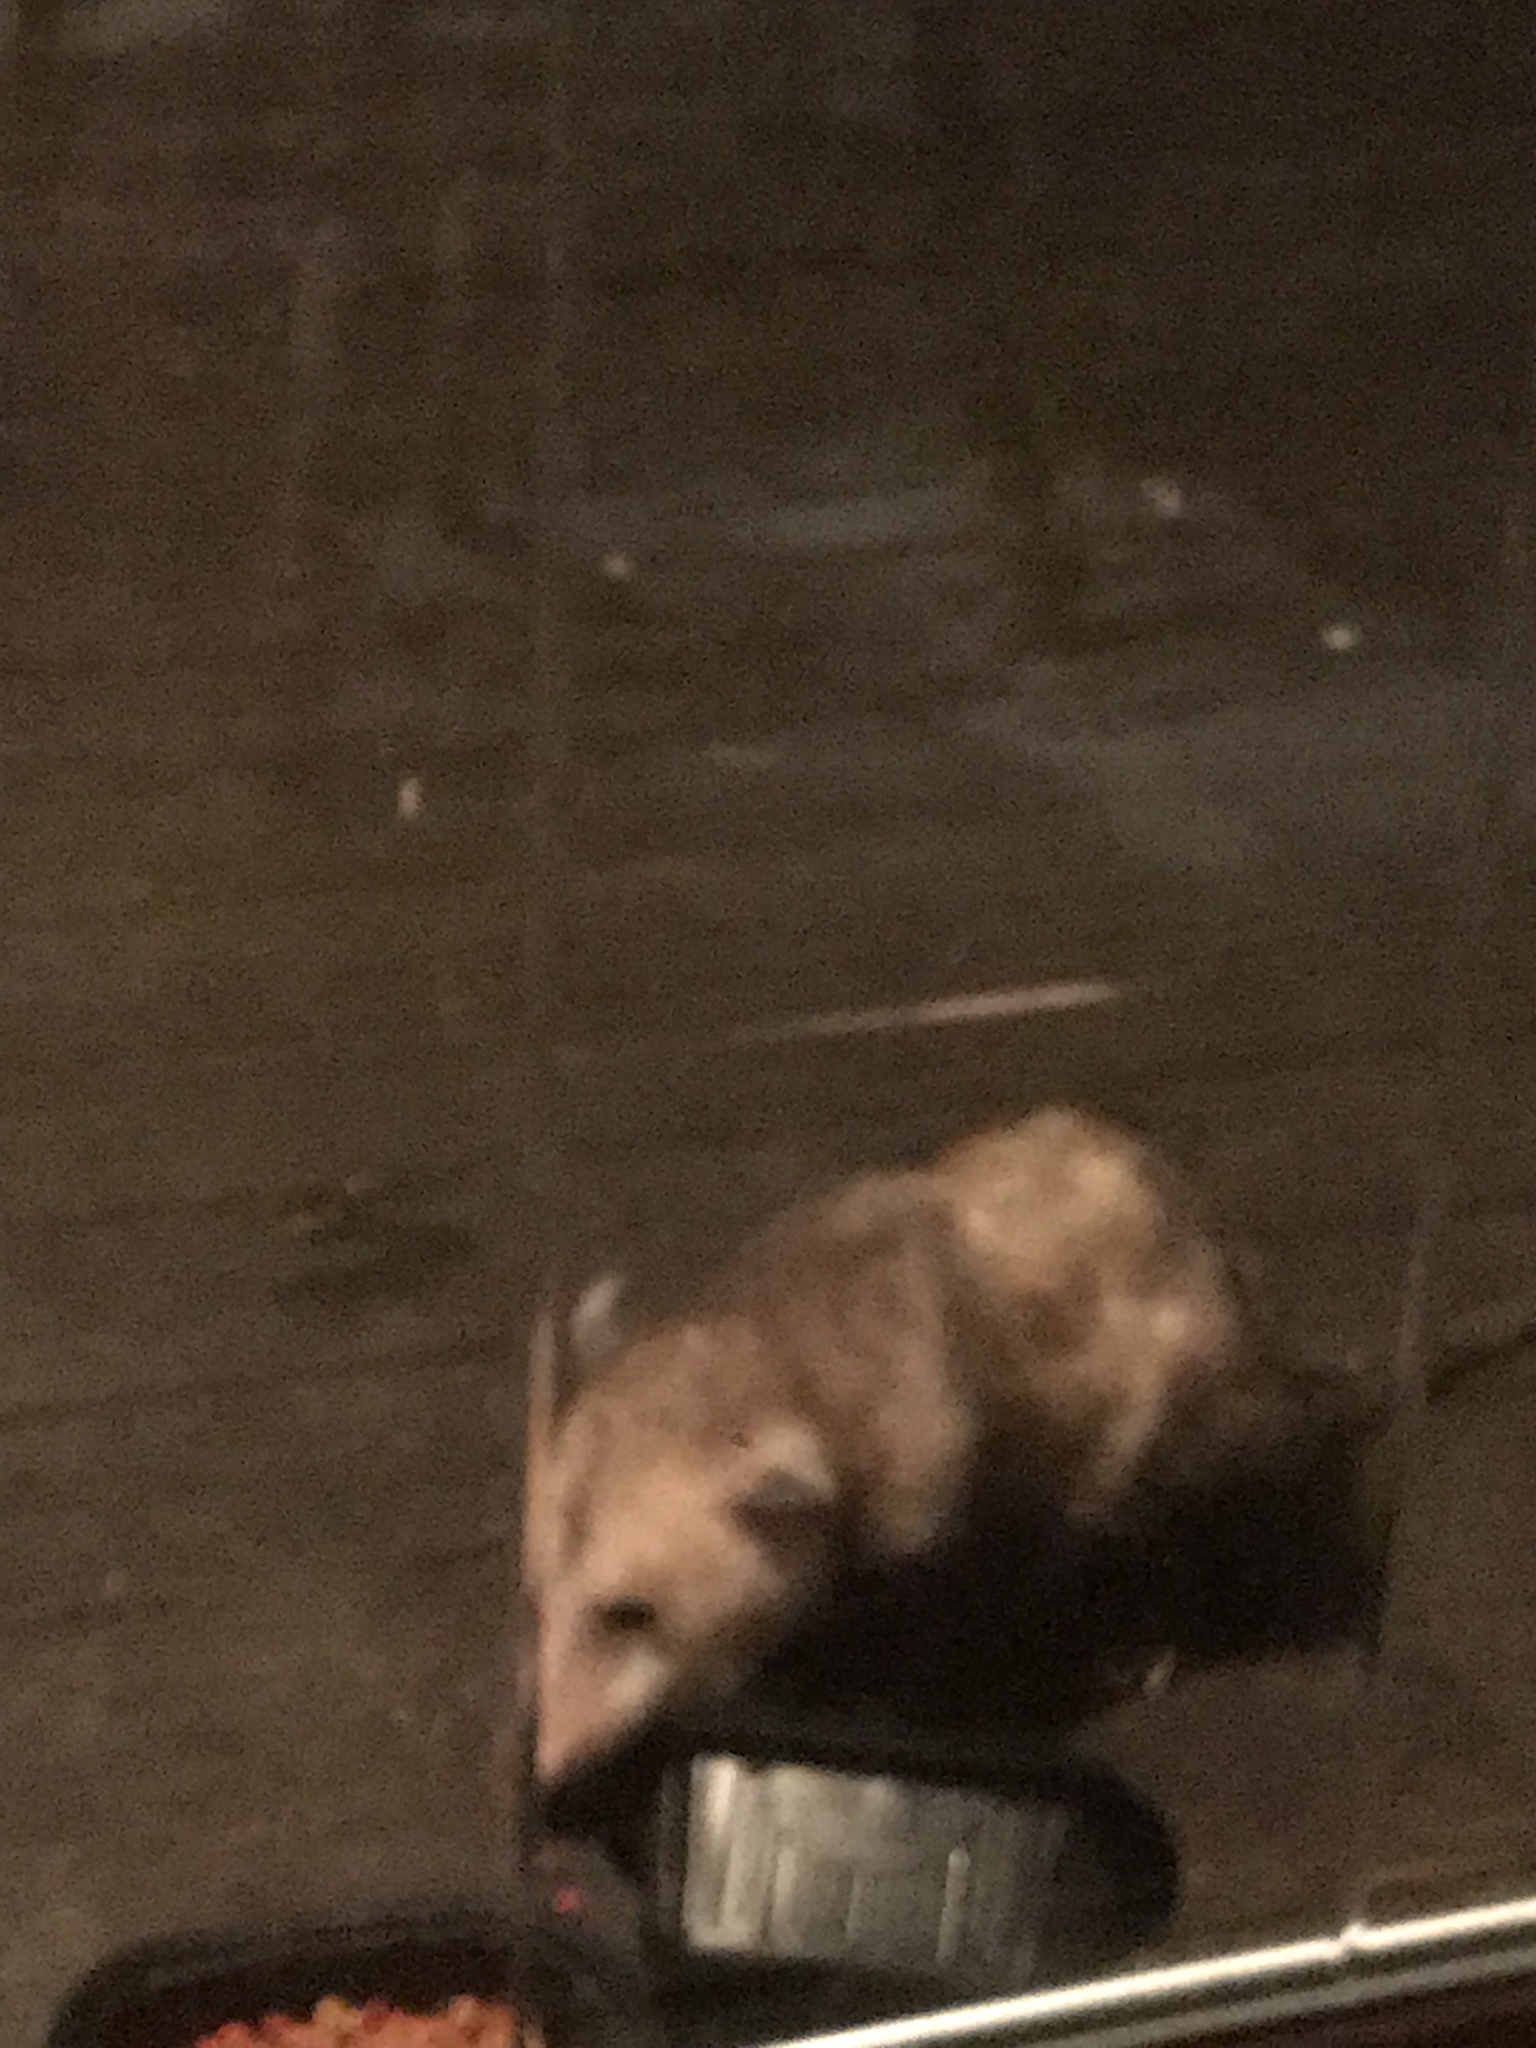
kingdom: Animalia
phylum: Chordata
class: Mammalia
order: Didelphimorphia
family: Didelphidae
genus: Didelphis
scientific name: Didelphis virginiana
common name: Virginia opossum
